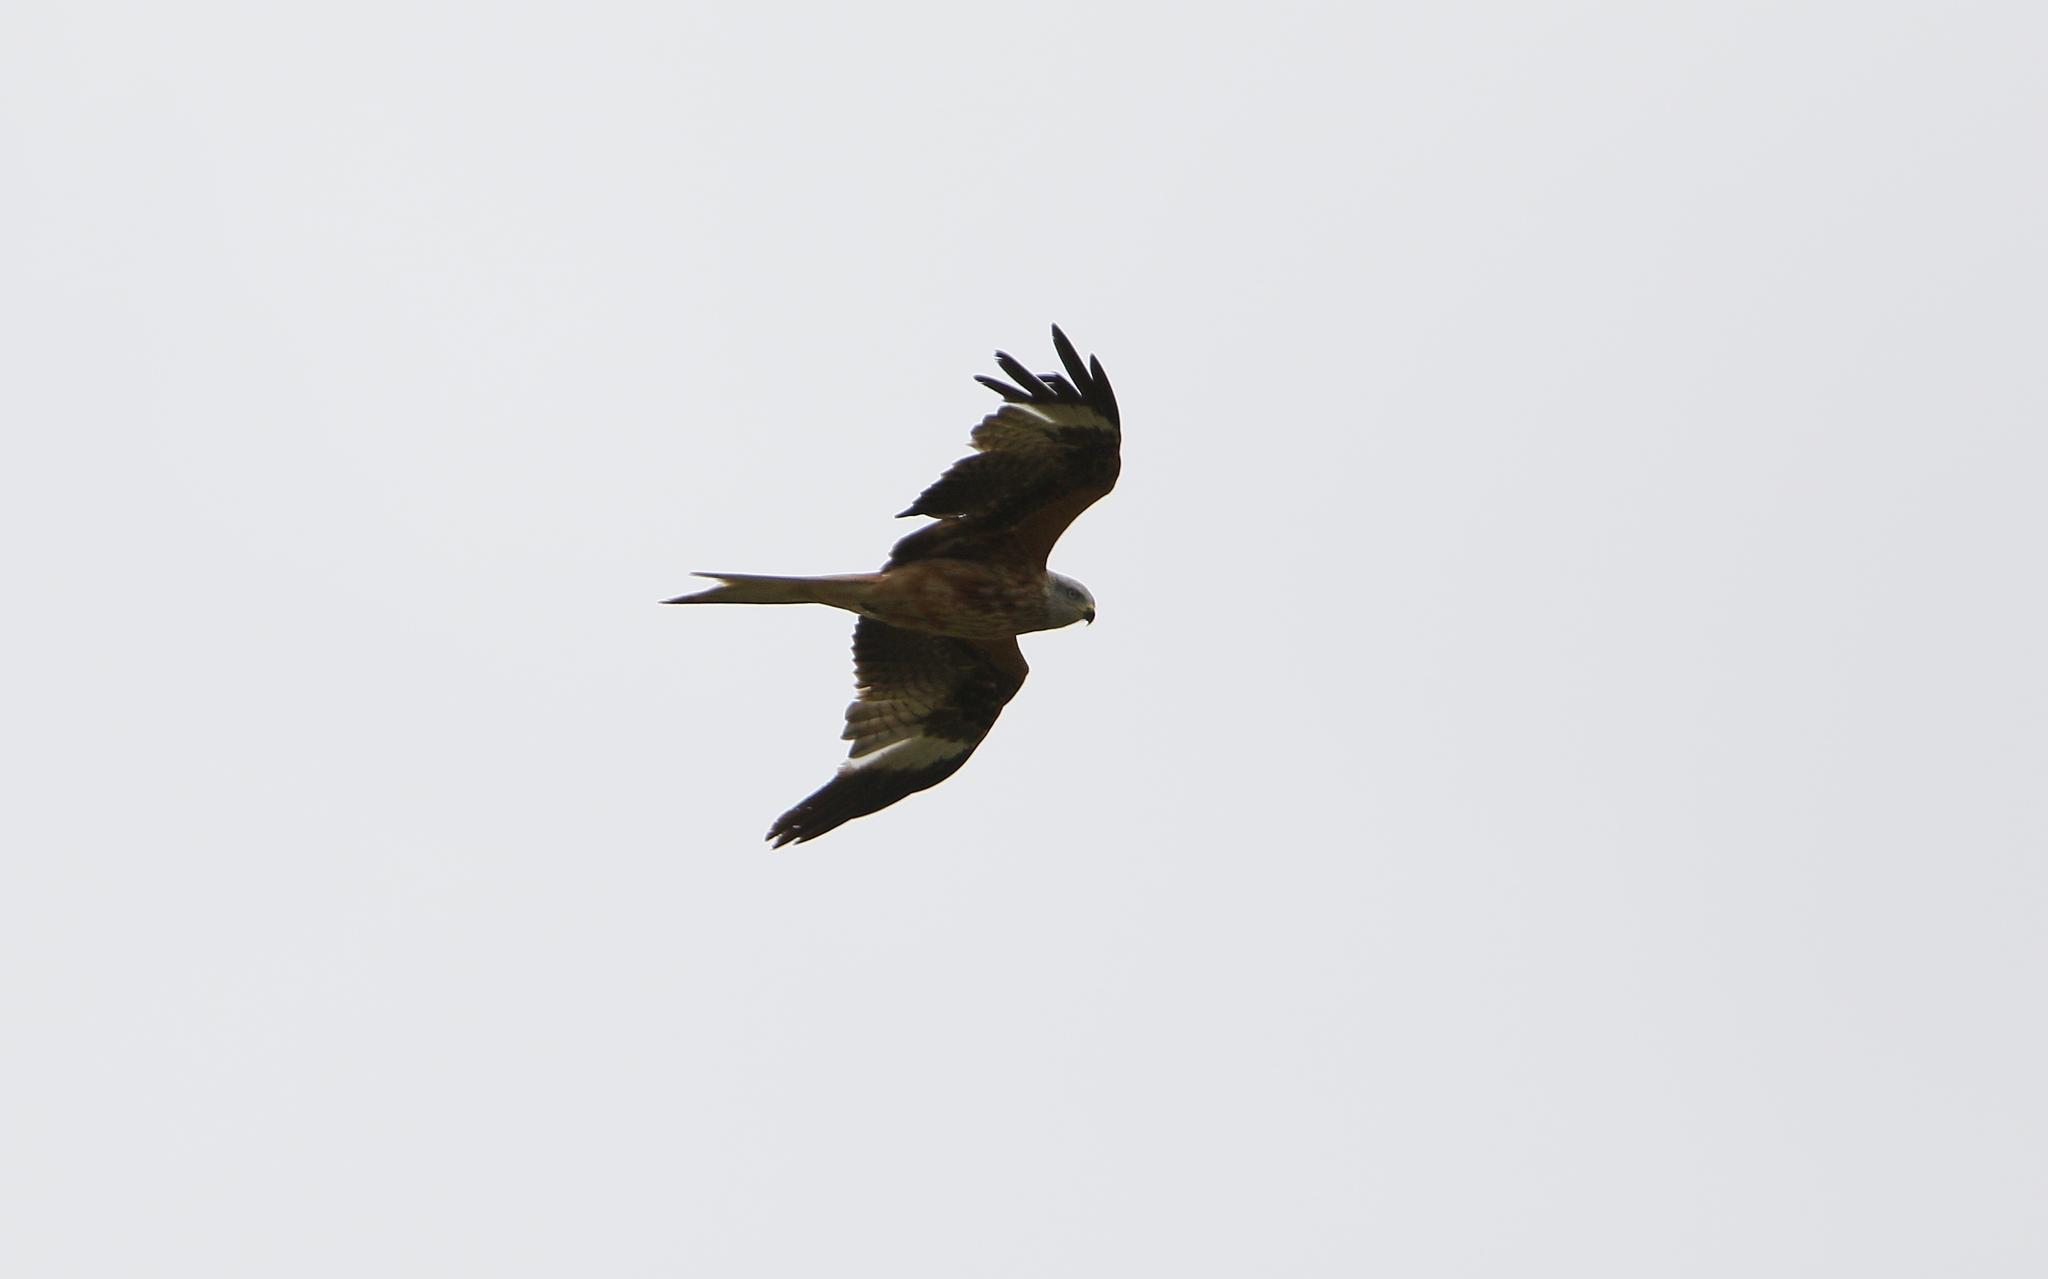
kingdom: Animalia
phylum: Chordata
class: Aves
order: Accipitriformes
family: Accipitridae
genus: Milvus
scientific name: Milvus milvus
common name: Red kite
